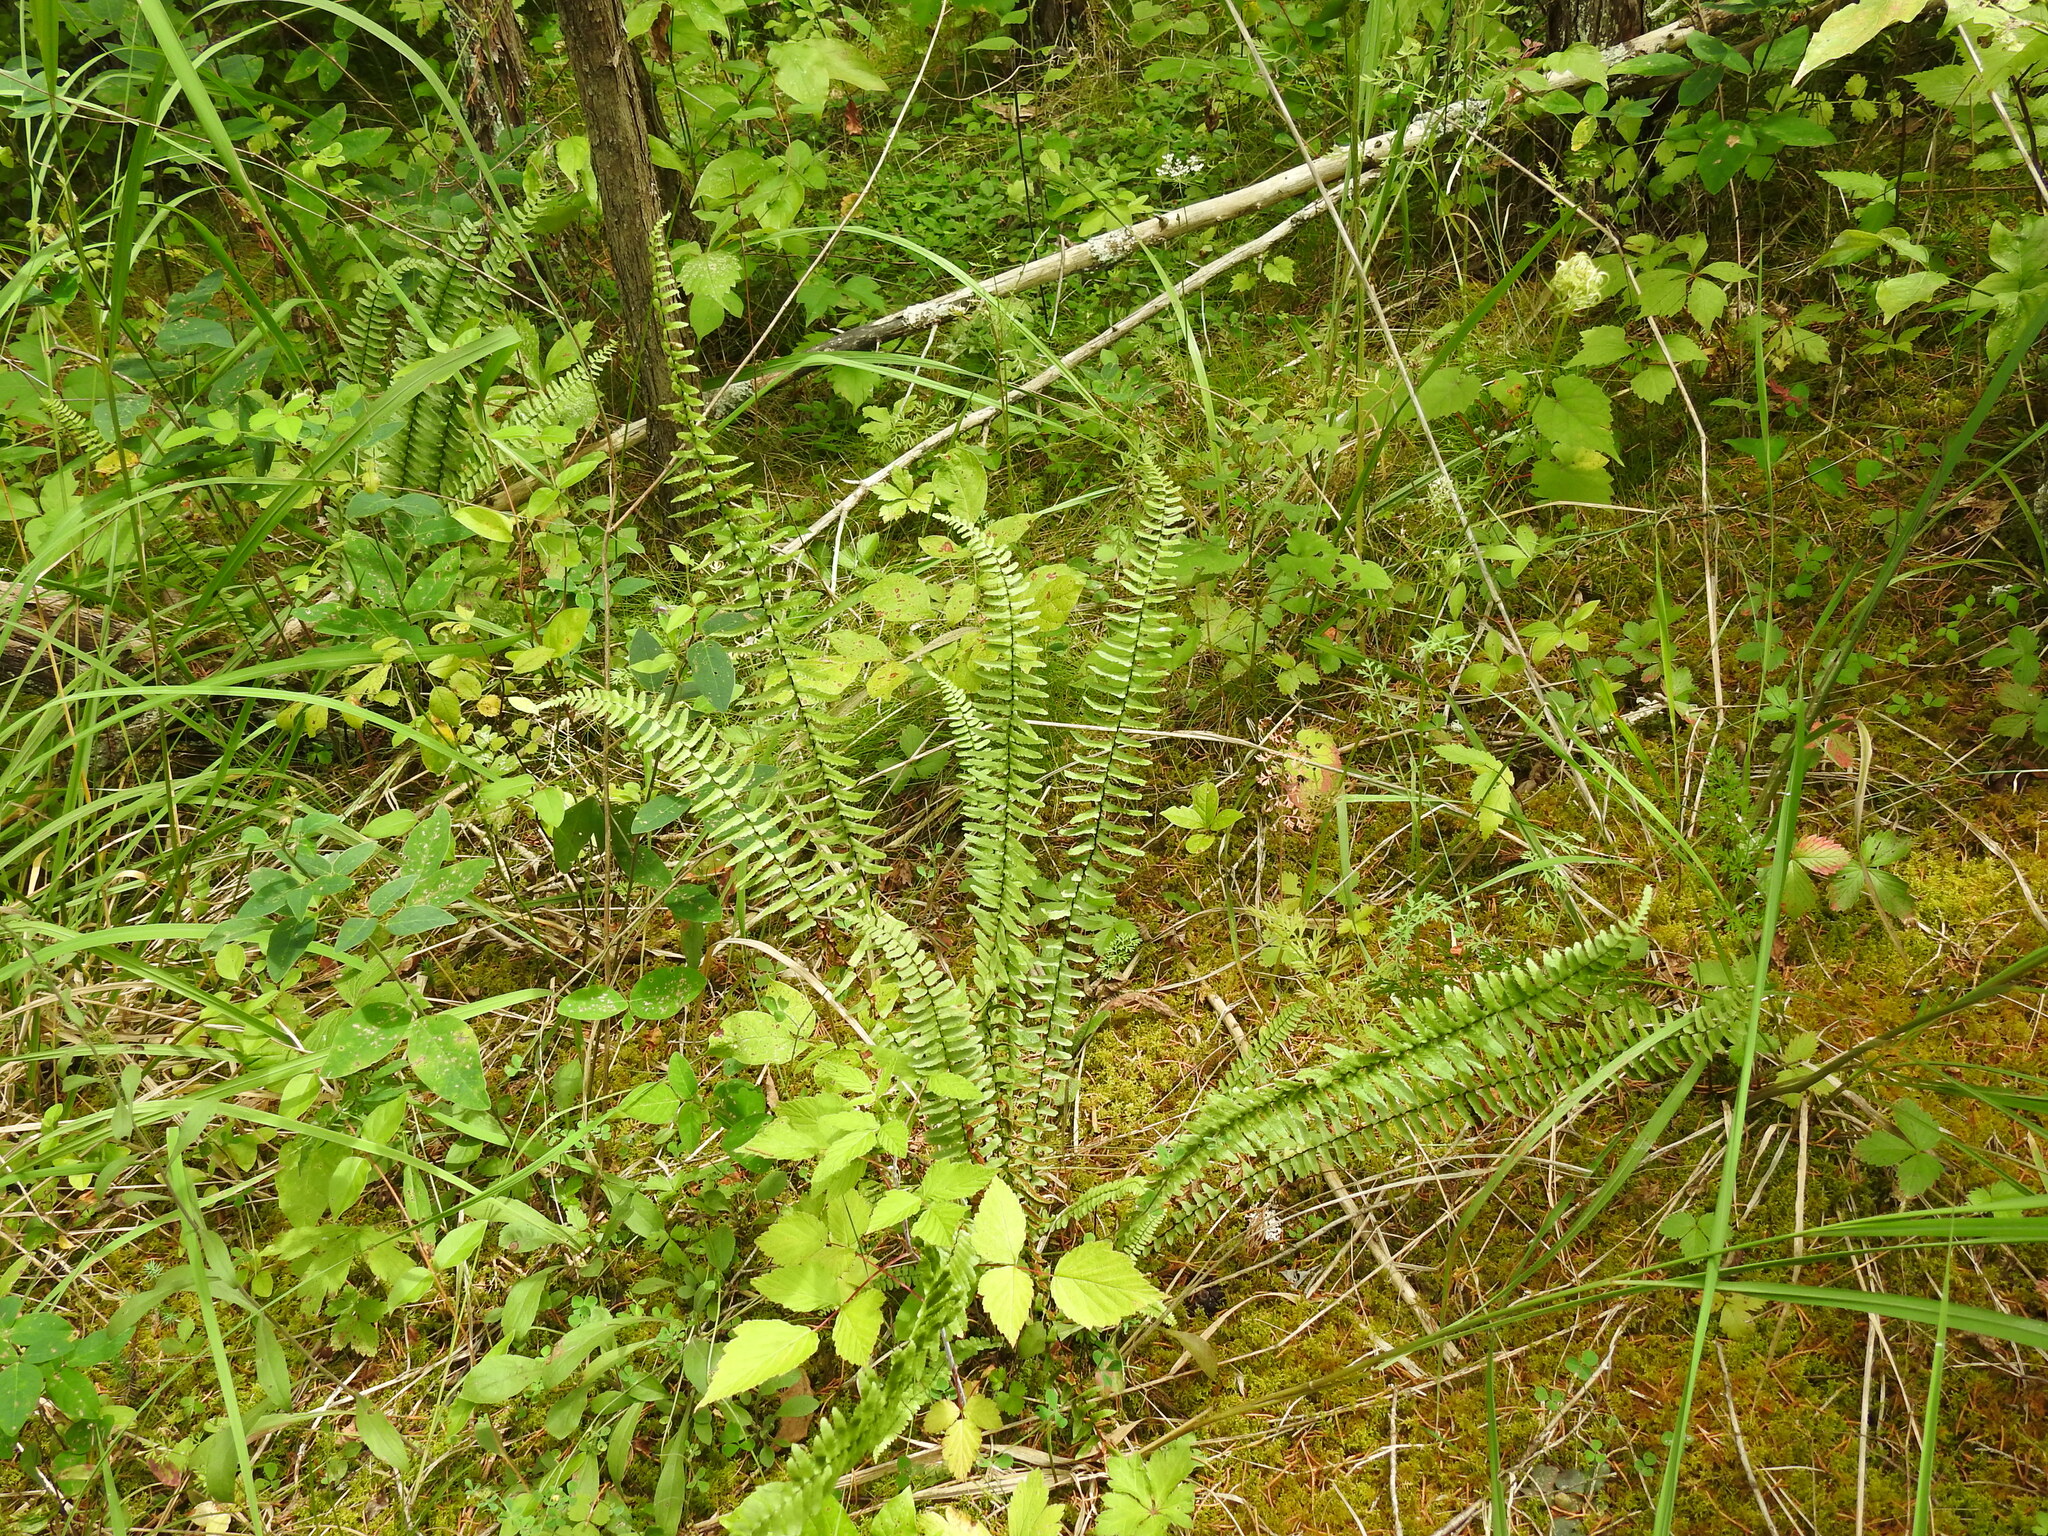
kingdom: Plantae
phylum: Tracheophyta
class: Polypodiopsida
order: Polypodiales
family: Aspleniaceae
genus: Asplenium
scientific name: Asplenium platyneuron
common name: Ebony spleenwort
